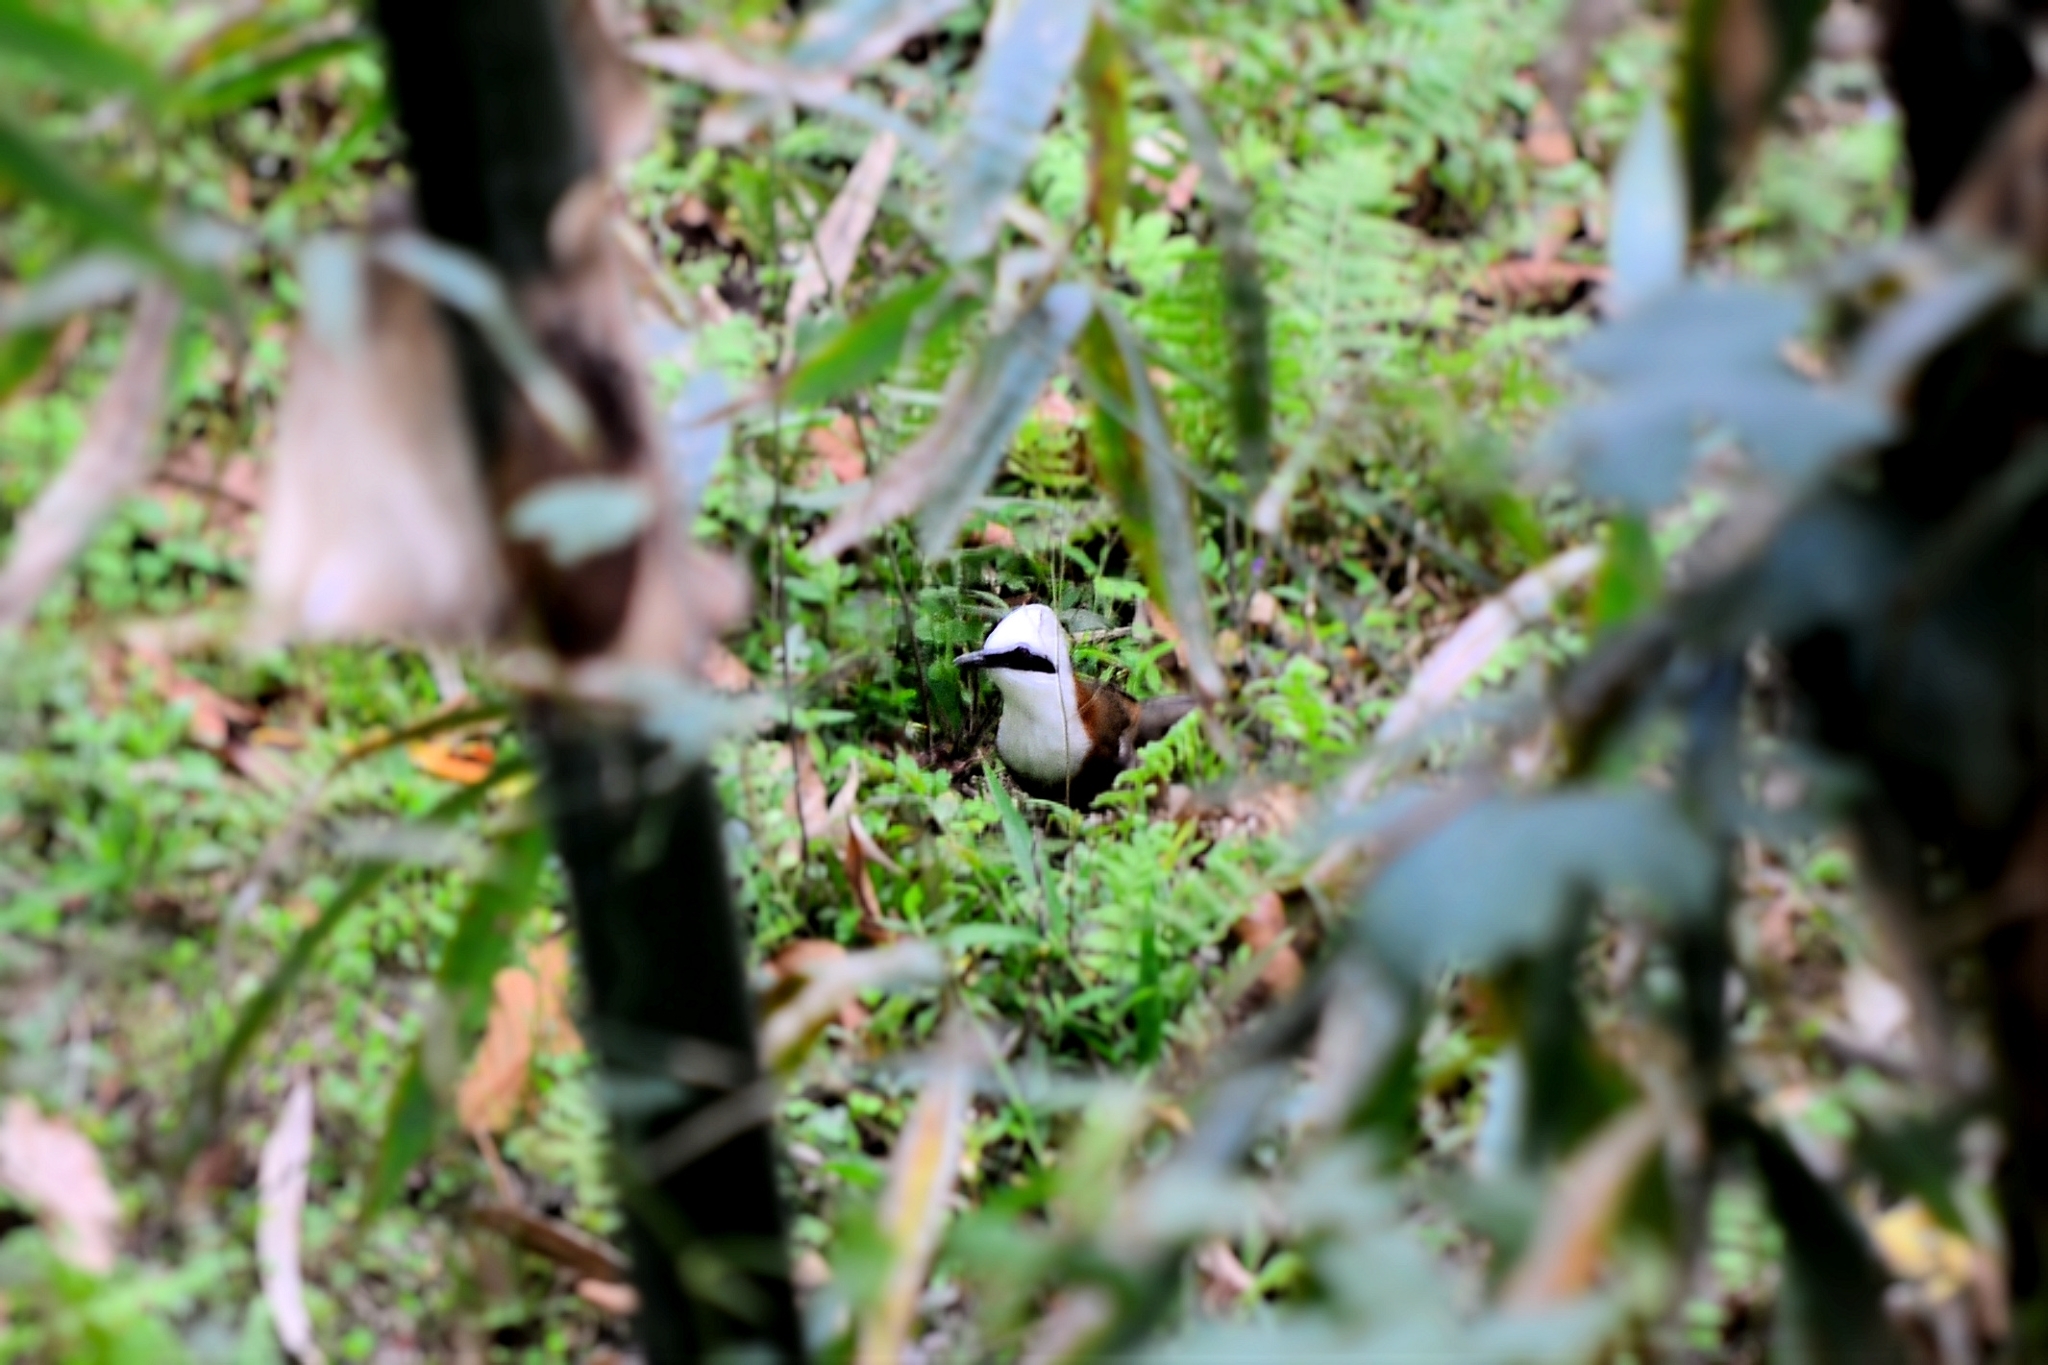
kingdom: Animalia
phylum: Chordata
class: Aves
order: Passeriformes
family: Leiothrichidae
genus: Garrulax
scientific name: Garrulax leucolophus
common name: White-crested laughingthrush
